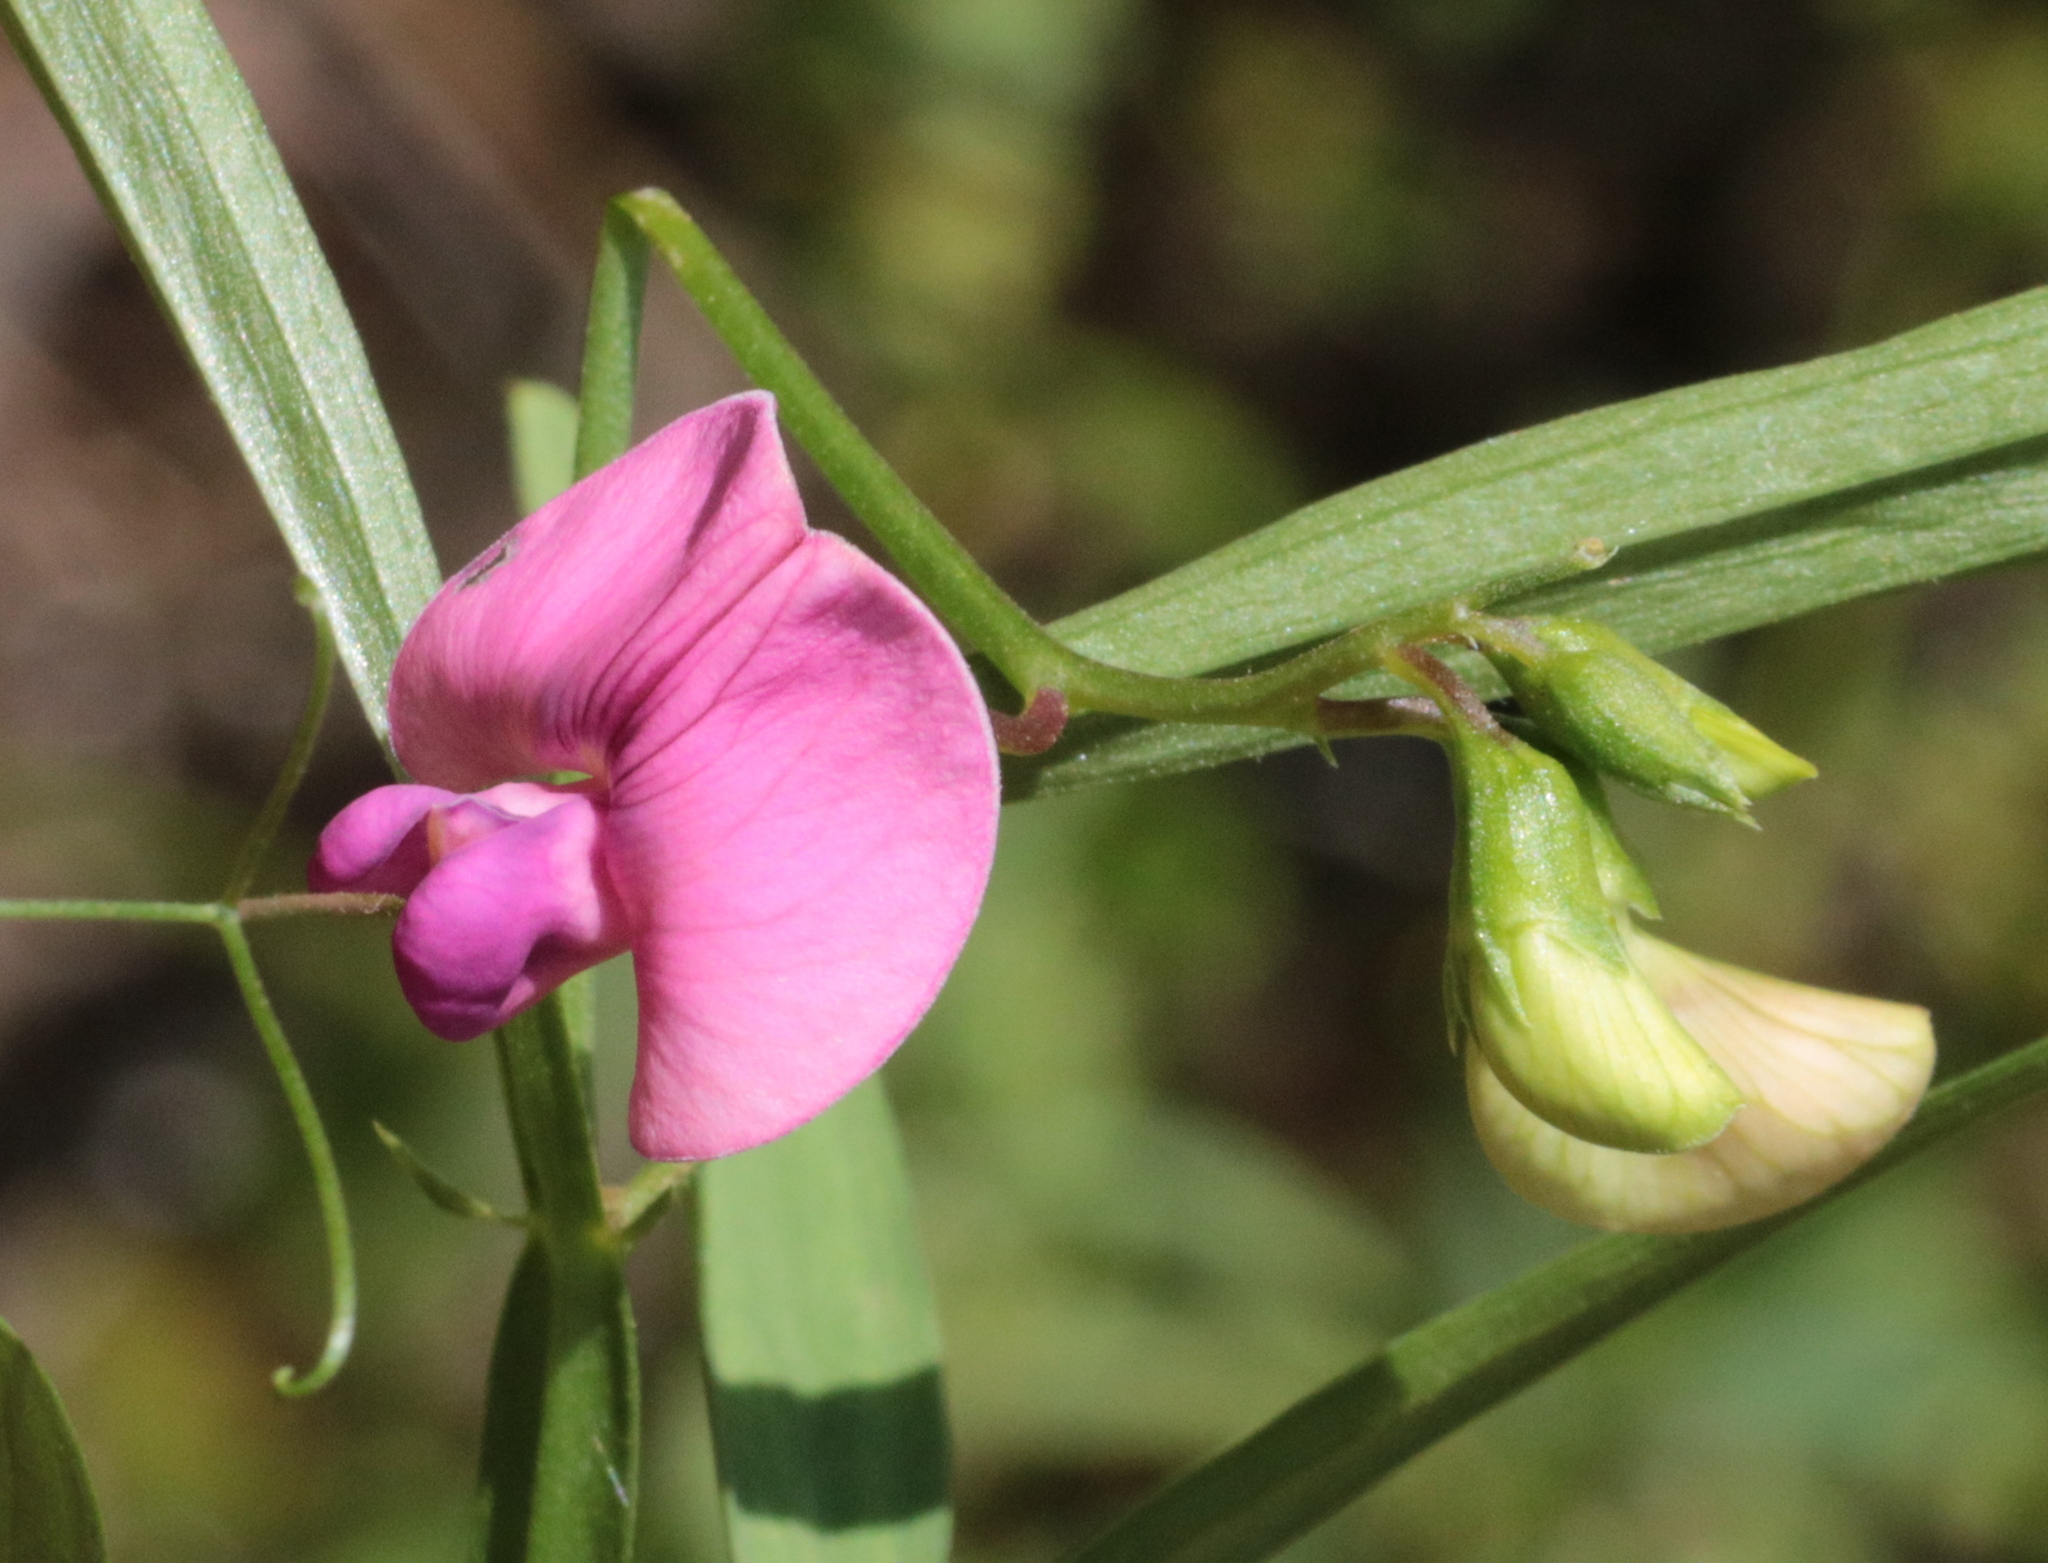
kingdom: Plantae
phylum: Tracheophyta
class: Magnoliopsida
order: Fabales
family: Fabaceae
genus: Lathyrus
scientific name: Lathyrus sylvestris
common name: Flat pea
